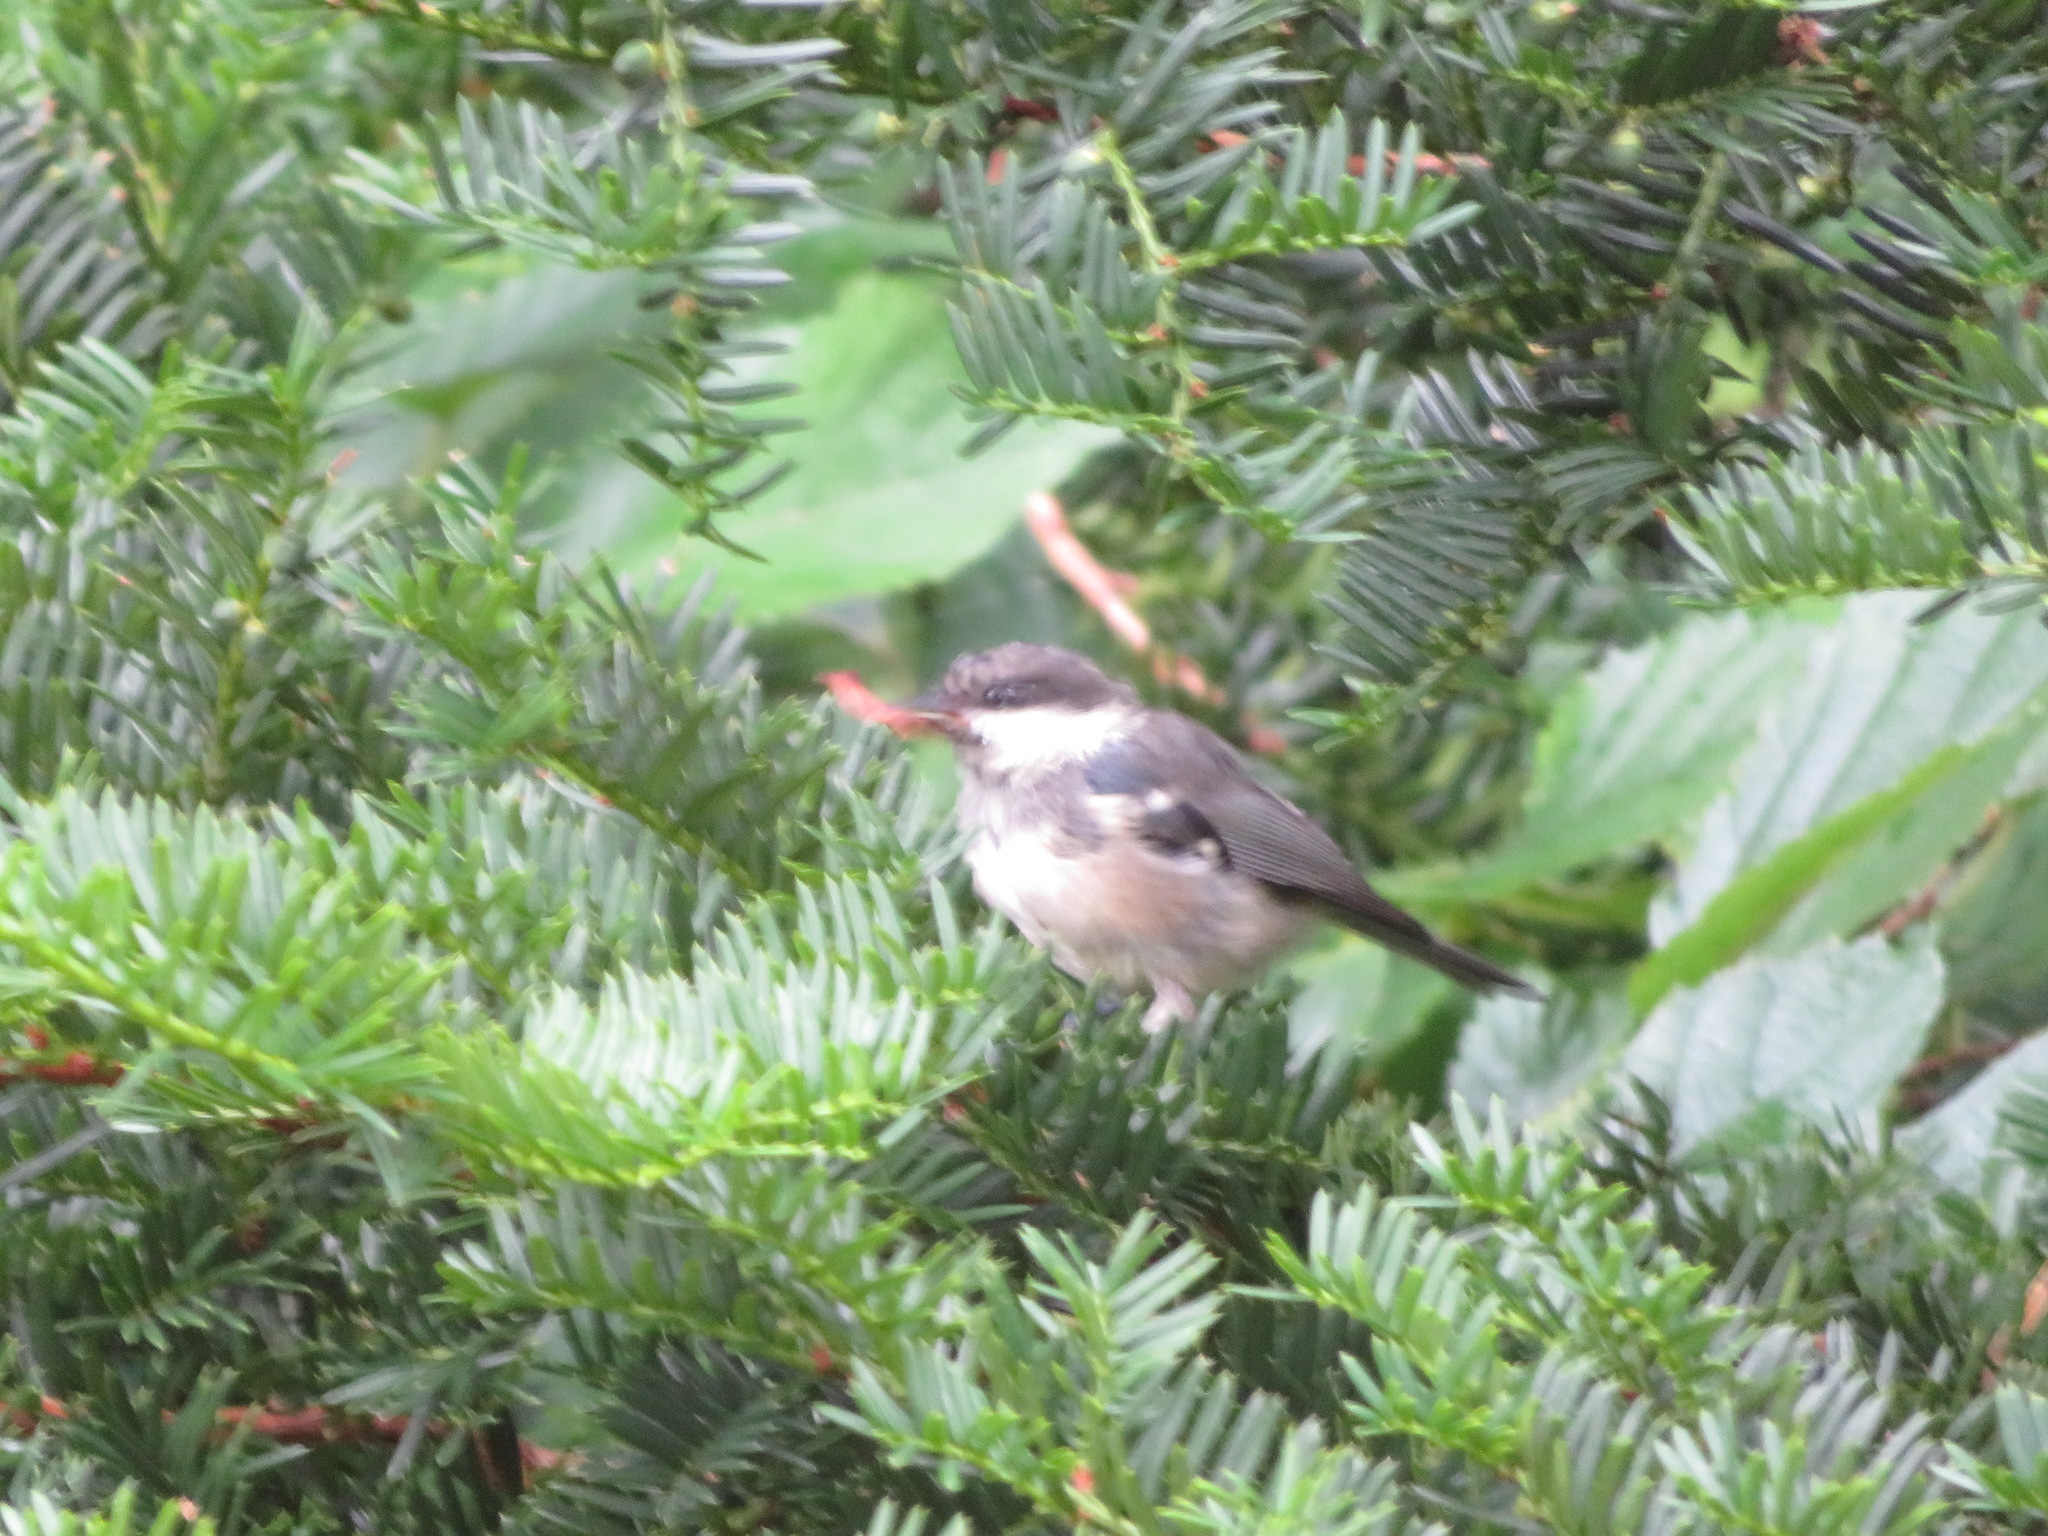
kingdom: Animalia
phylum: Chordata
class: Aves
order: Passeriformes
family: Paridae
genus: Periparus
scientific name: Periparus ater
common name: Coal tit
